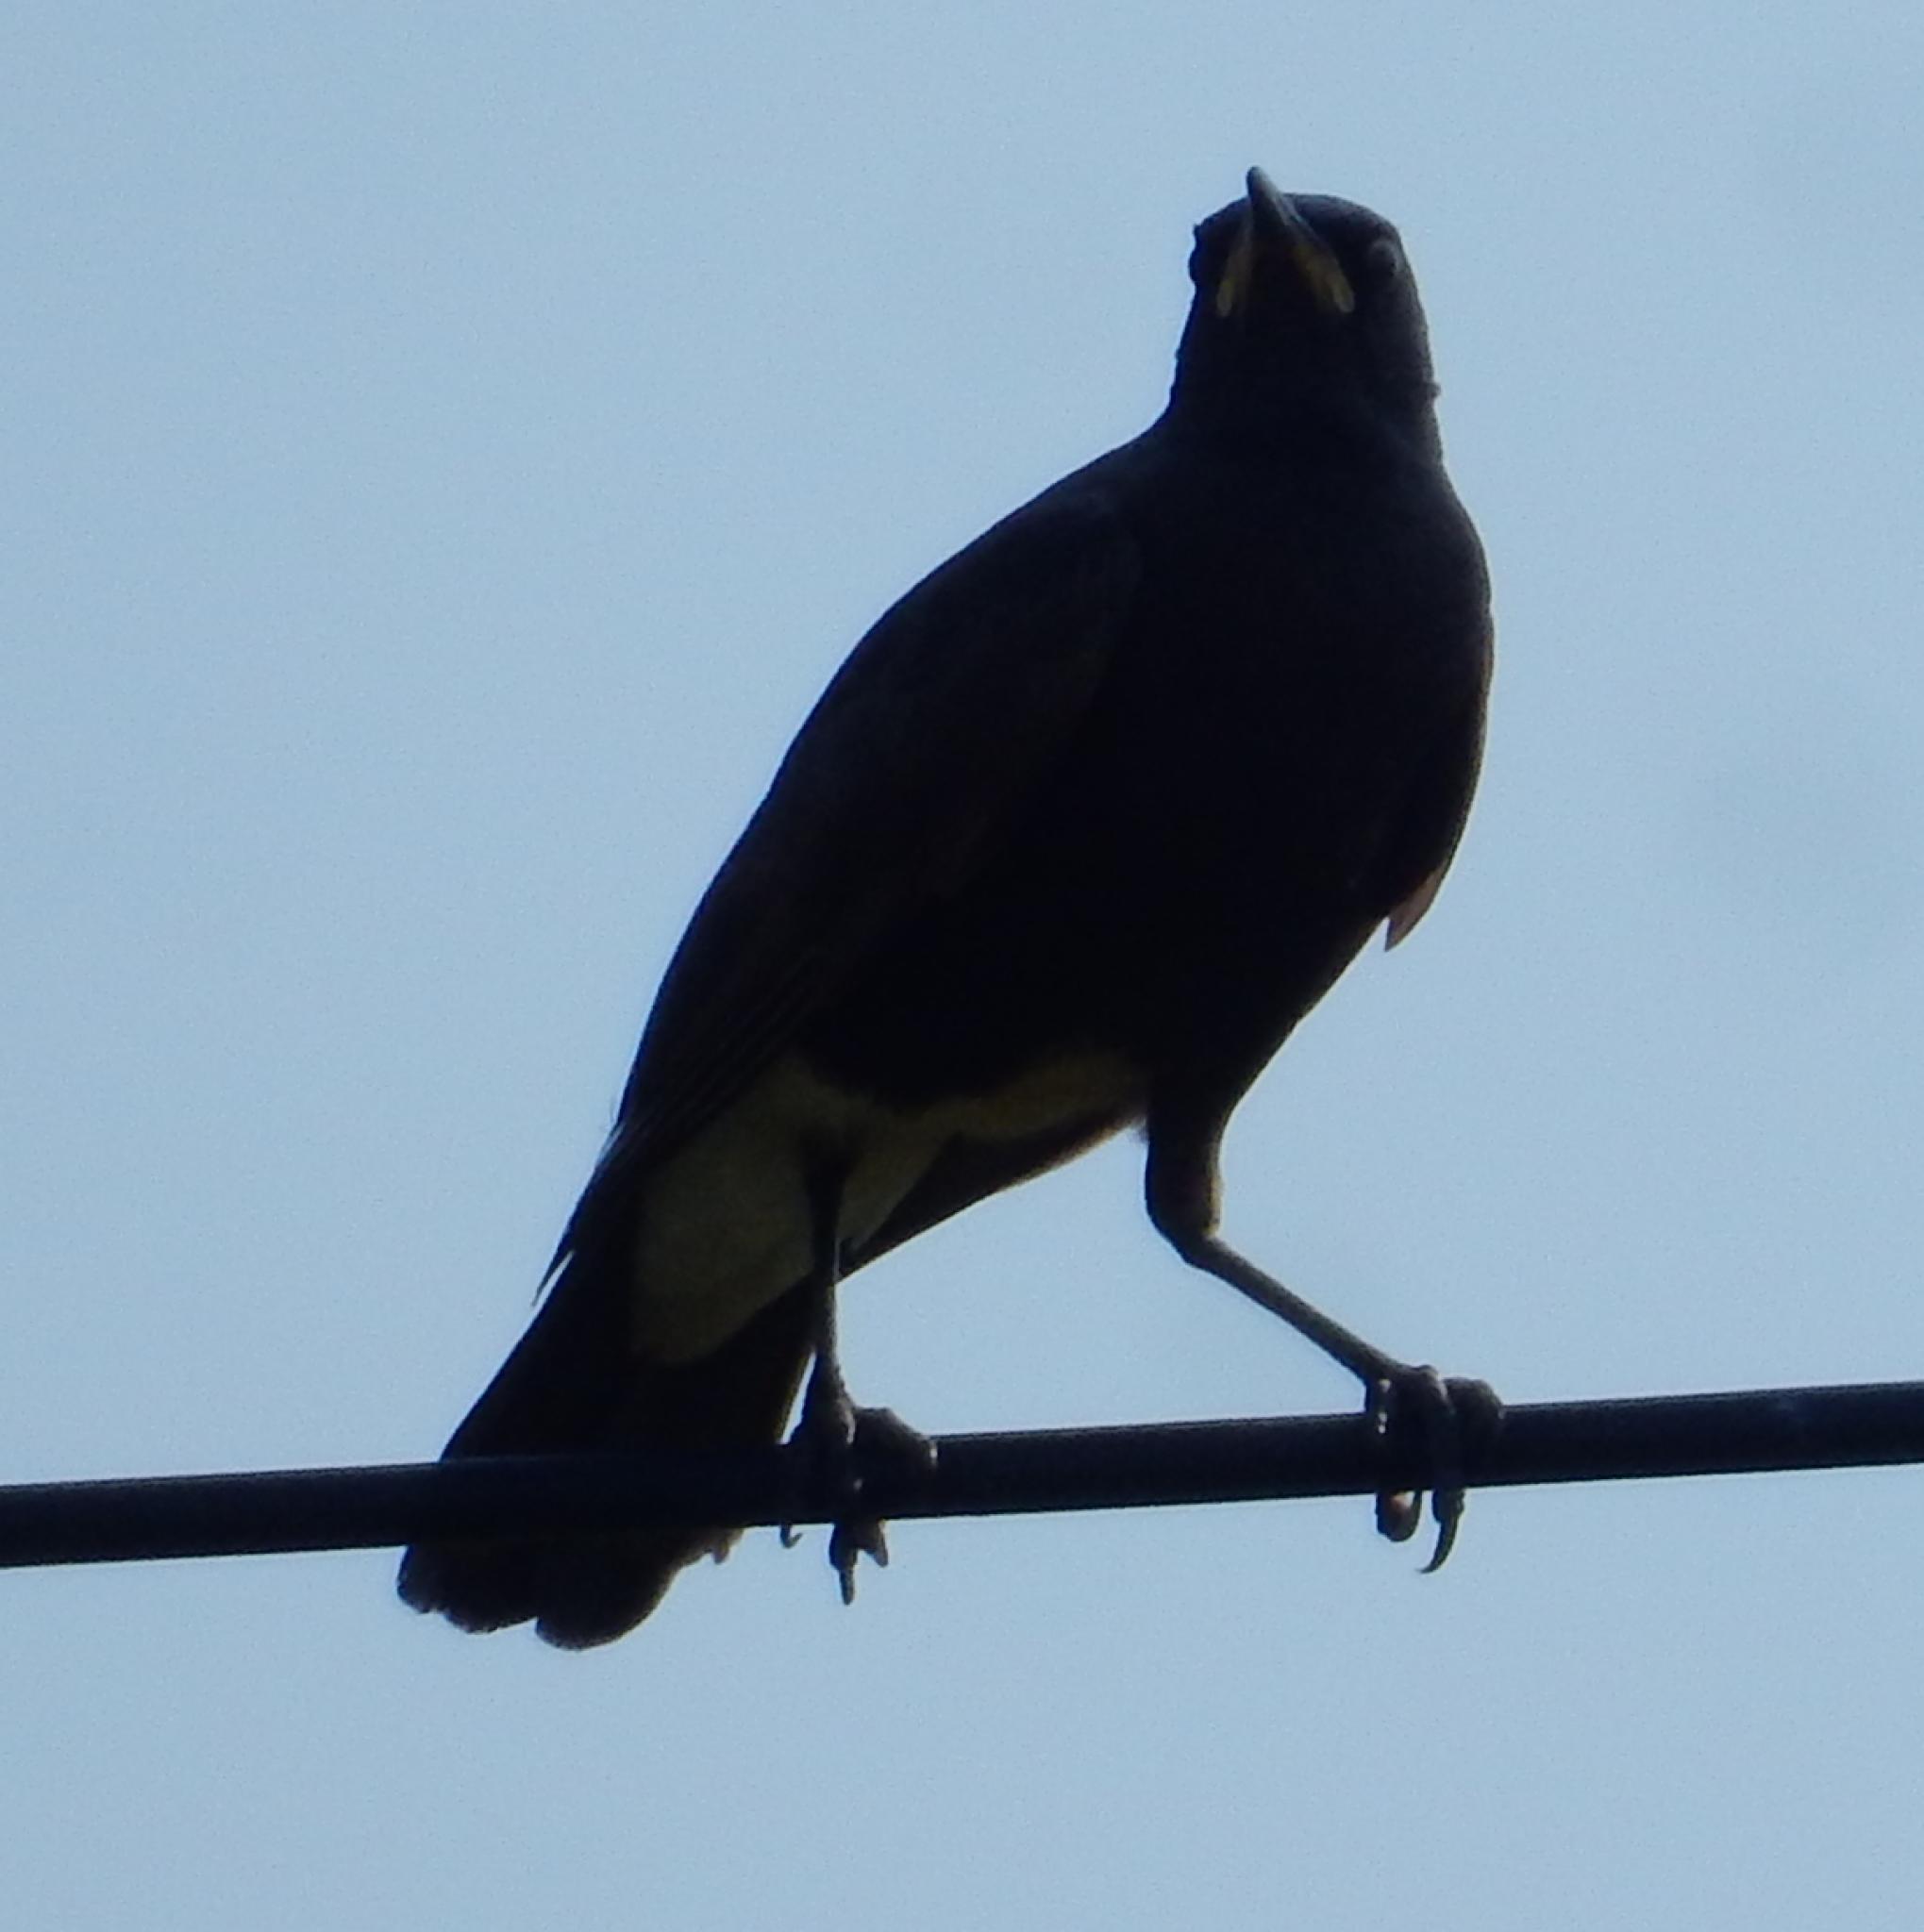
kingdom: Animalia
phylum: Chordata
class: Aves
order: Passeriformes
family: Sturnidae
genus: Lamprotornis
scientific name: Lamprotornis bicolor
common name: Pied starling
